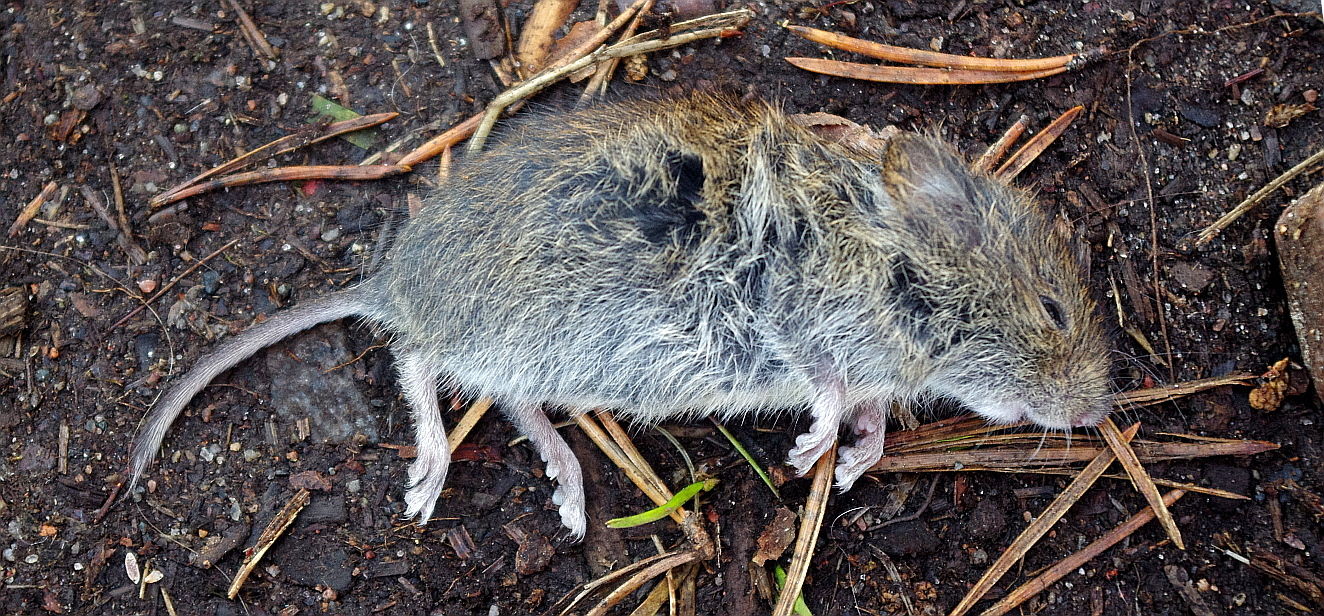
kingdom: Animalia
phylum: Chordata
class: Mammalia
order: Rodentia
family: Cricetidae
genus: Myodes
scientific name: Myodes glareolus
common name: Bank vole
